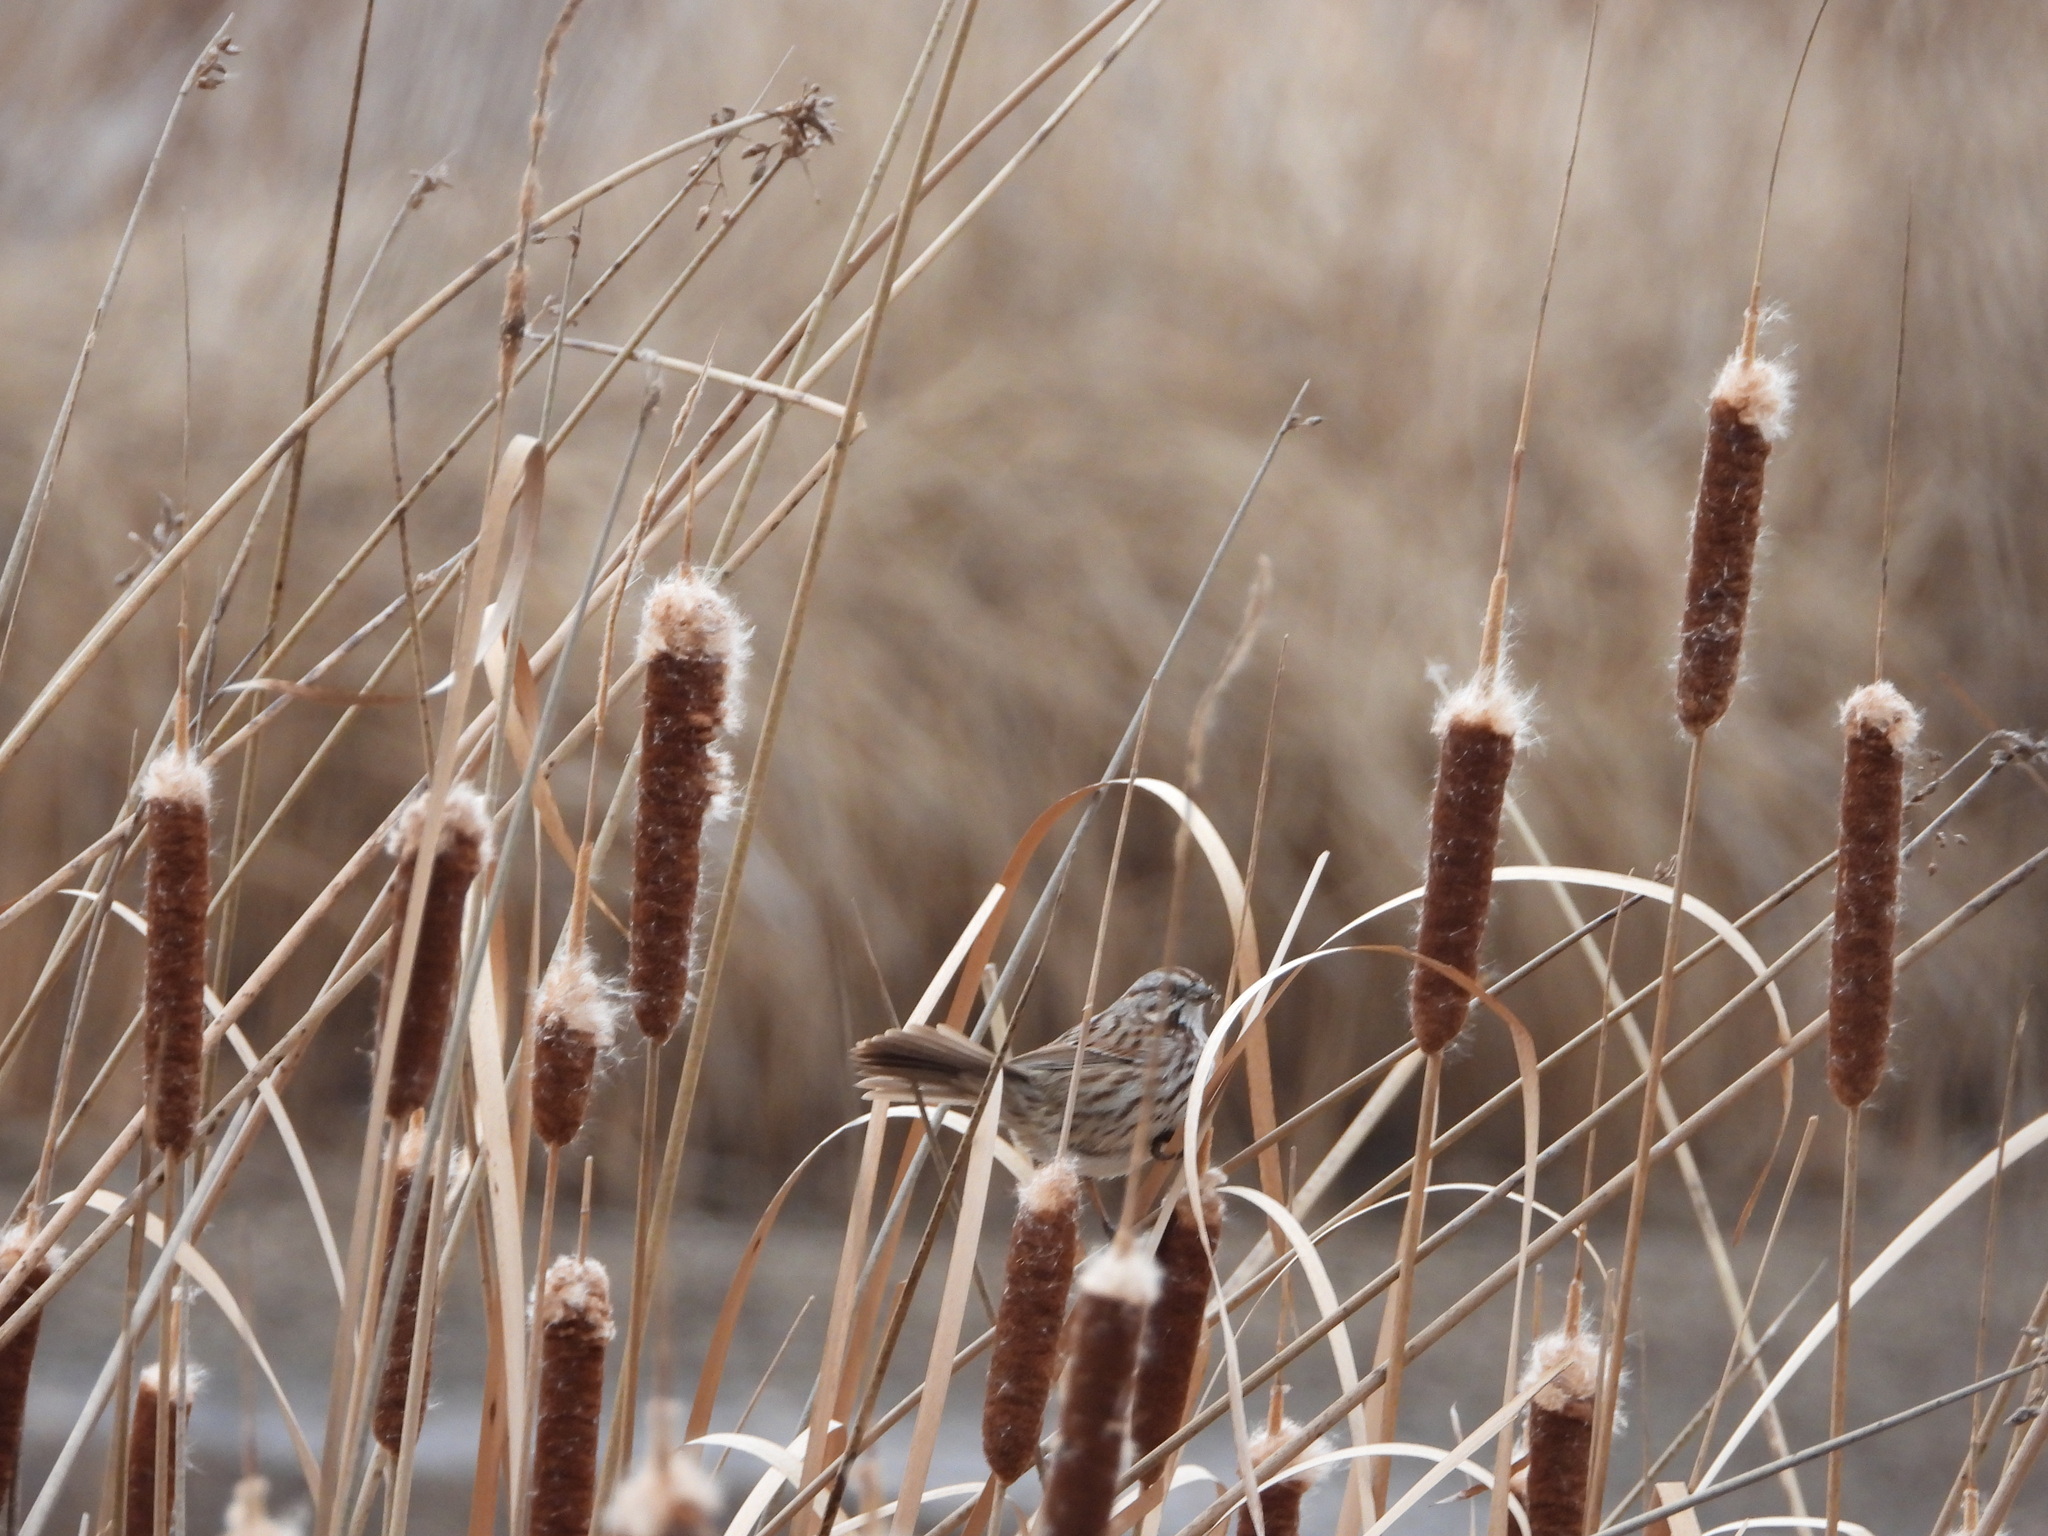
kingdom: Animalia
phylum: Chordata
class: Aves
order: Passeriformes
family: Passerellidae
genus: Melospiza
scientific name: Melospiza melodia
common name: Song sparrow
